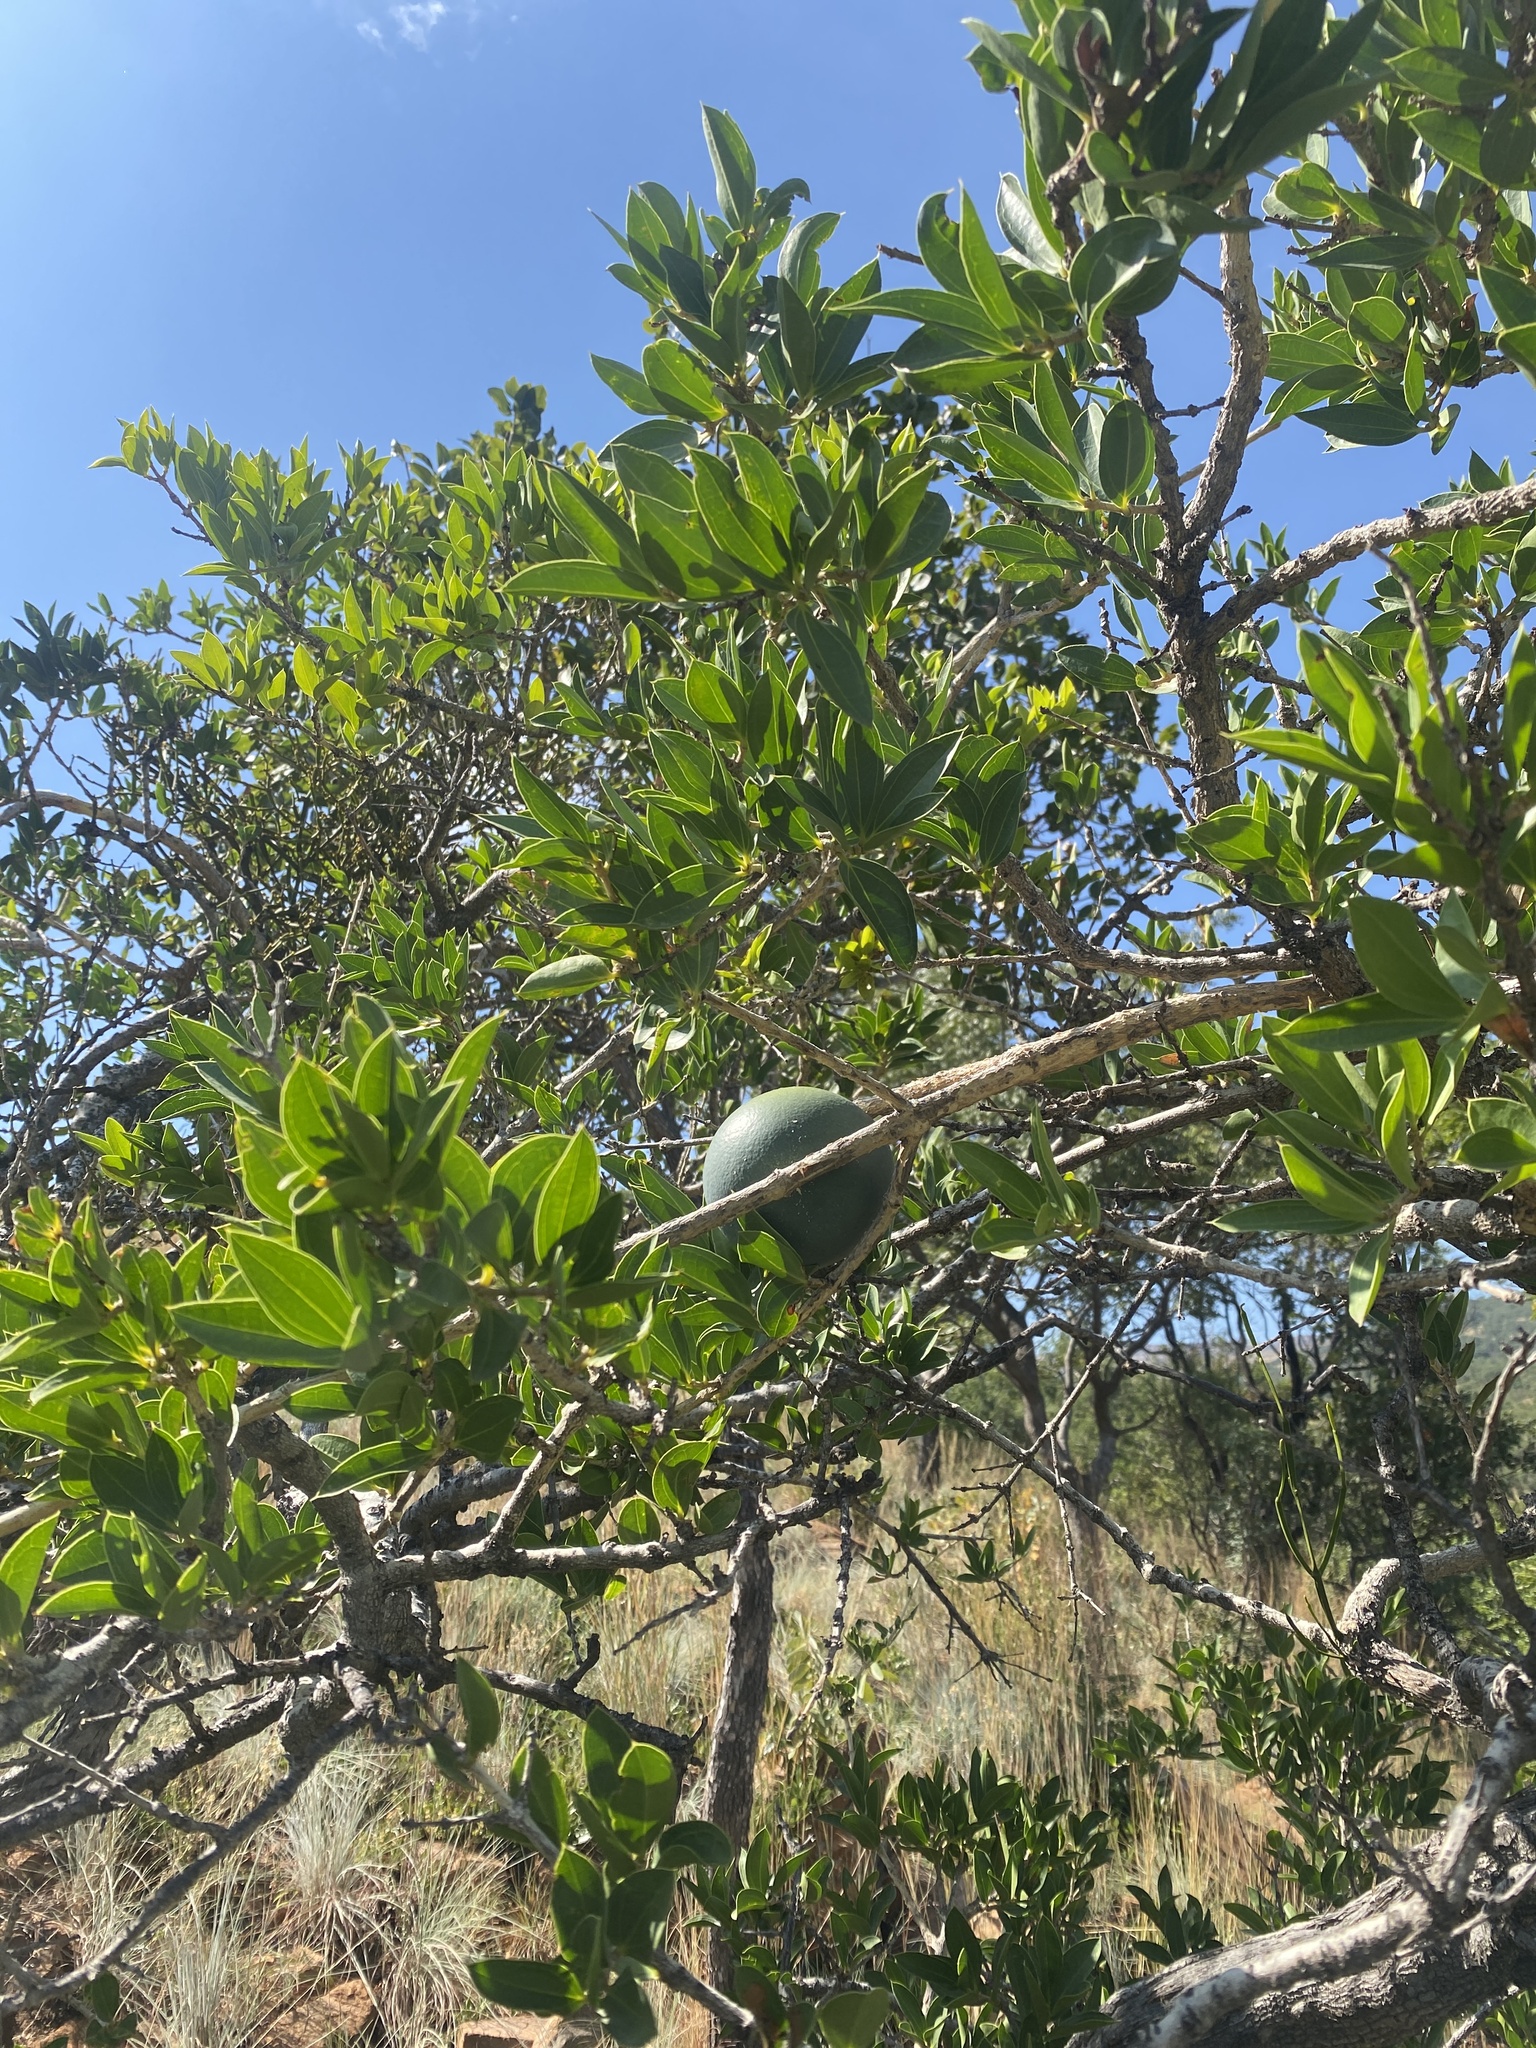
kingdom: Plantae
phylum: Tracheophyta
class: Magnoliopsida
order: Gentianales
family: Loganiaceae
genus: Strychnos
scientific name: Strychnos pungens
